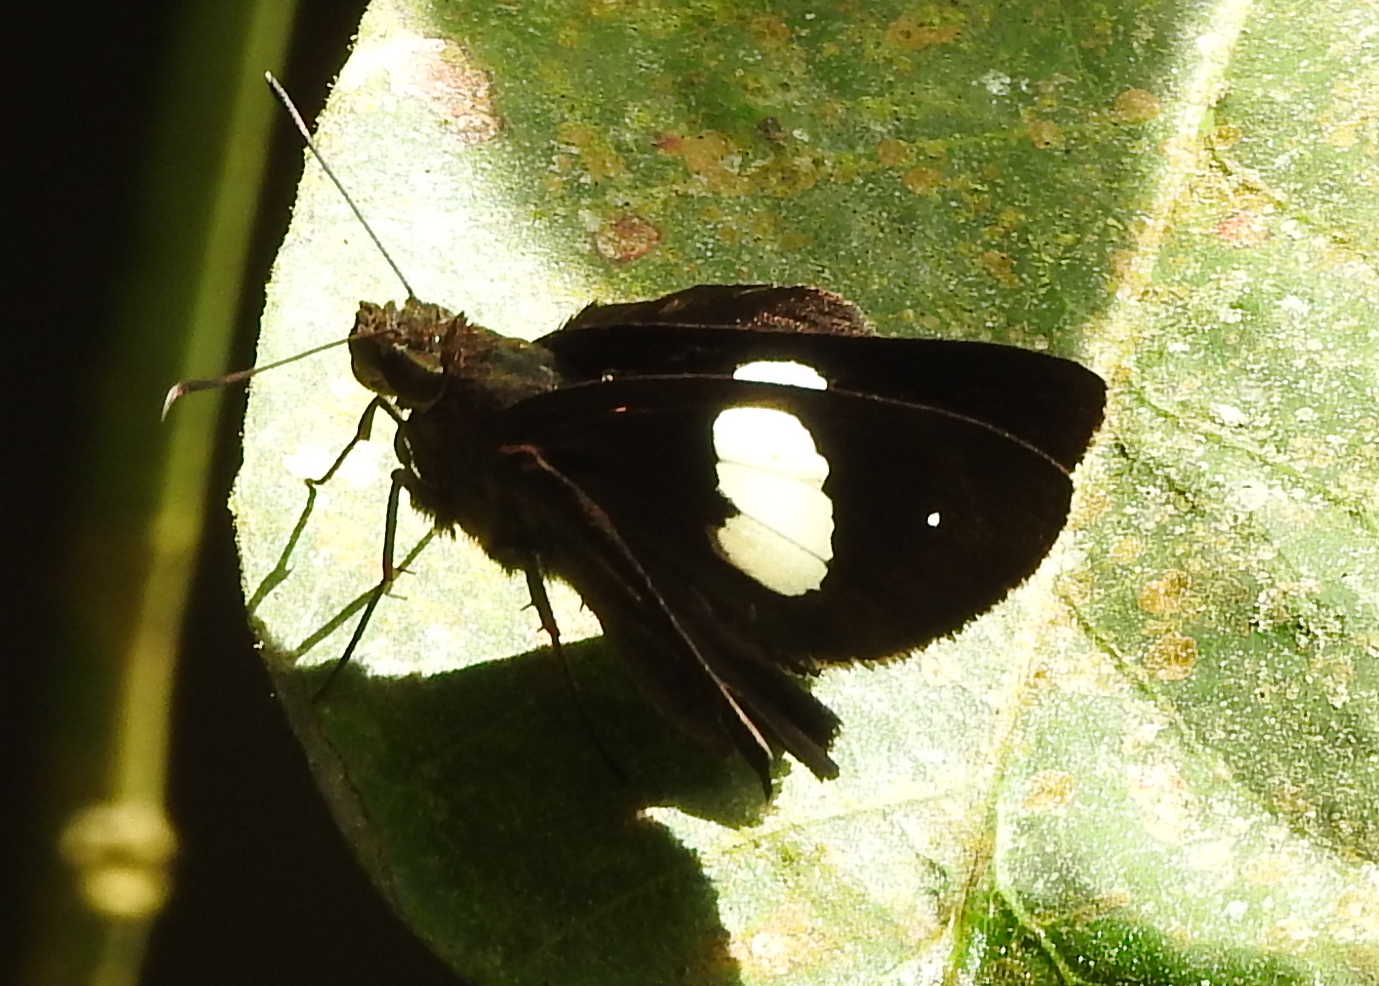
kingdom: Animalia
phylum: Arthropoda
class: Insecta
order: Lepidoptera
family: Hesperiidae
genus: Notocrypta
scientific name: Notocrypta paralysos
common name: Common banded demon
